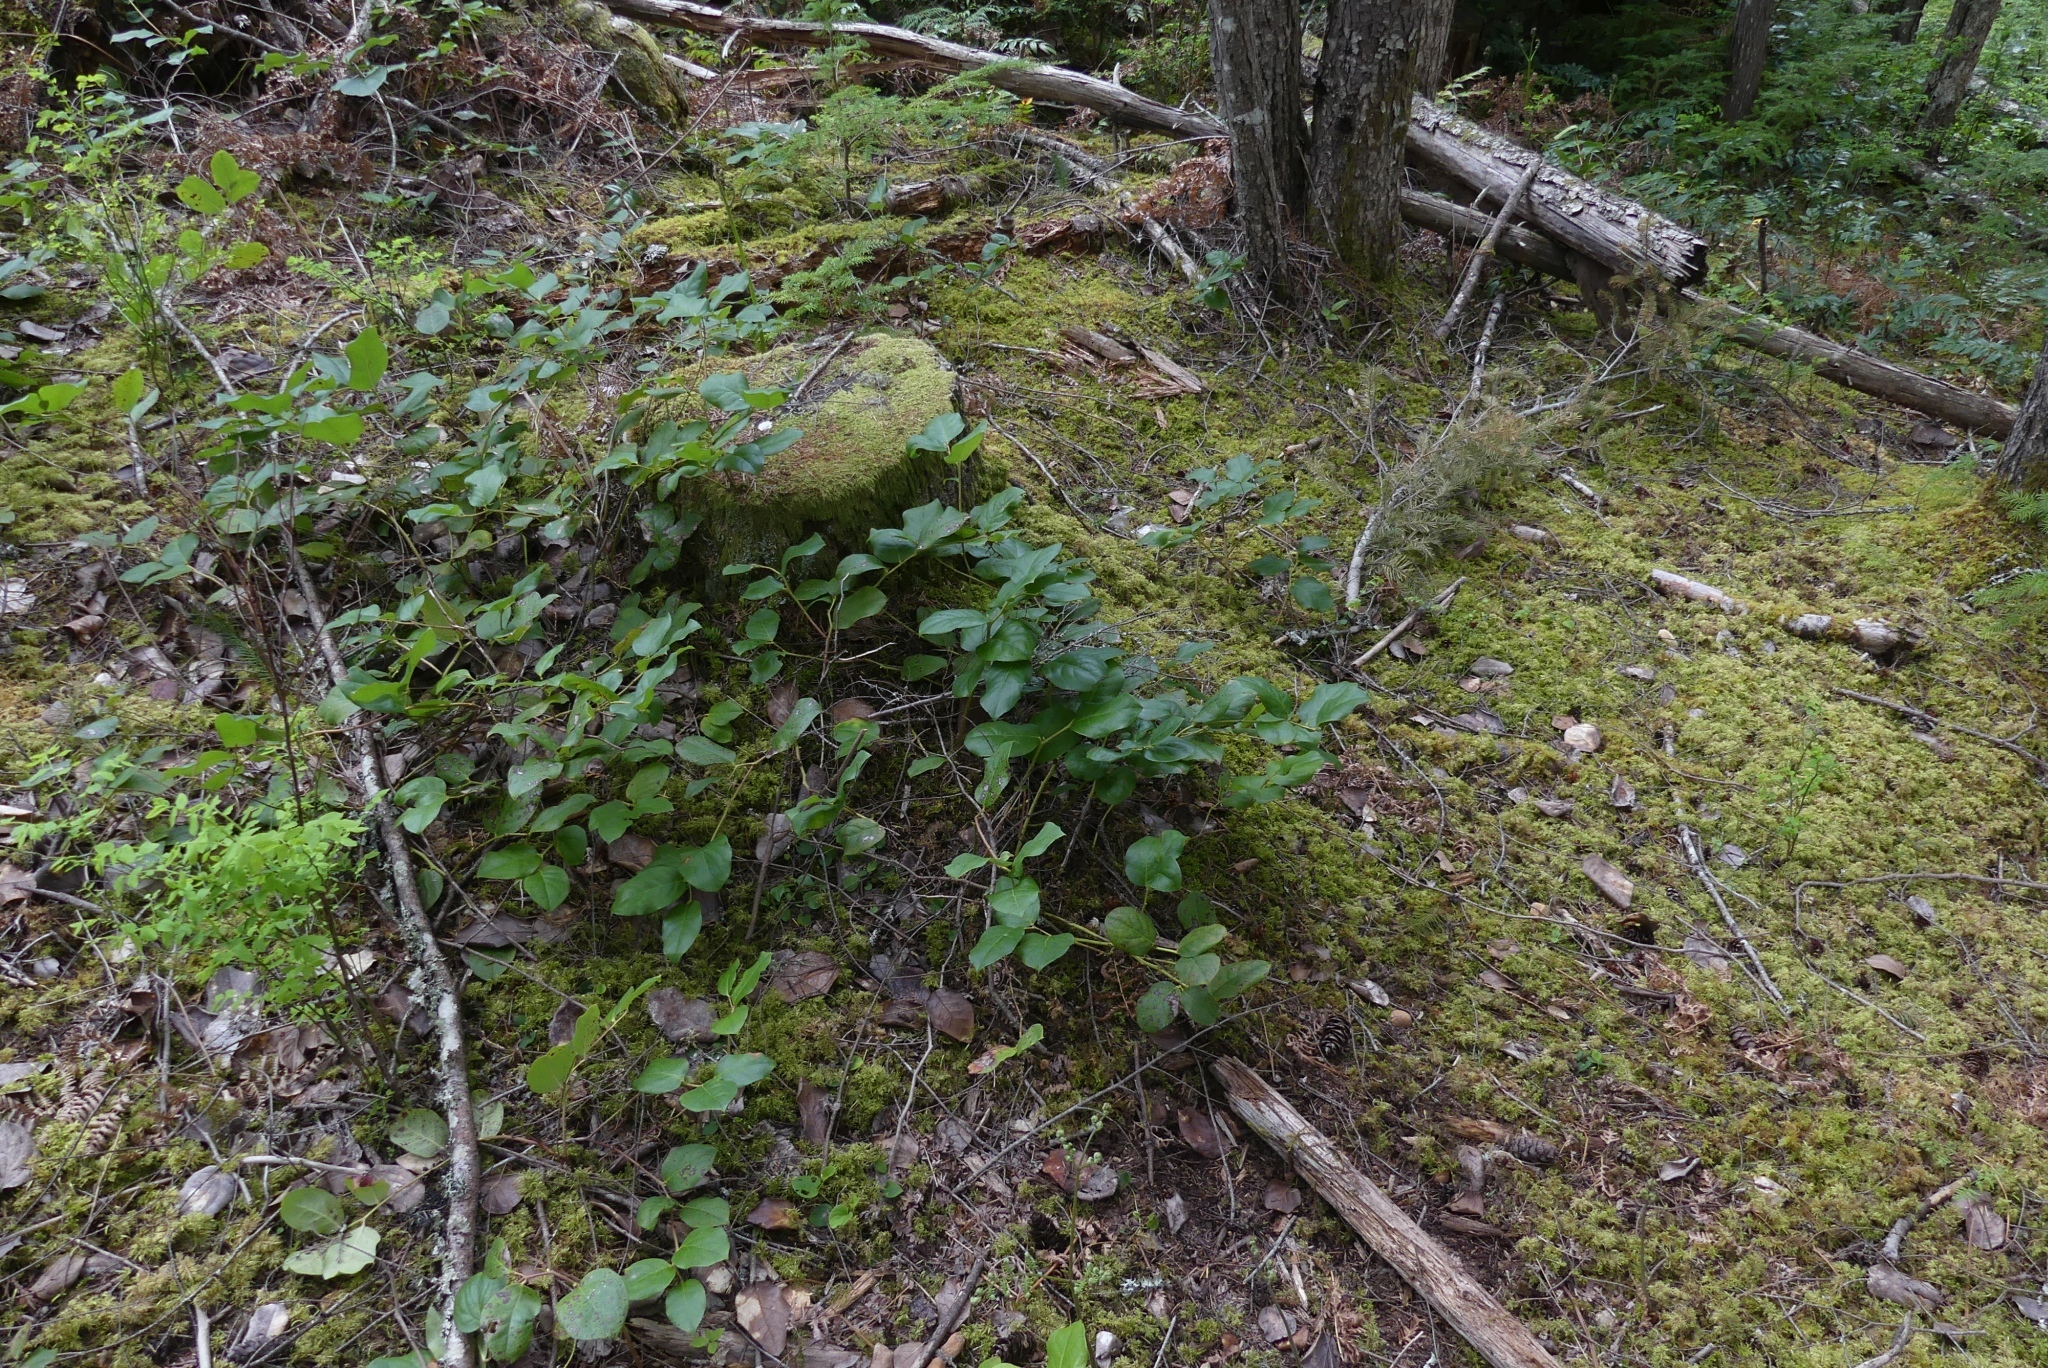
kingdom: Plantae
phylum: Tracheophyta
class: Magnoliopsida
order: Ericales
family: Ericaceae
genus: Gaultheria
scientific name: Gaultheria shallon
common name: Shallon
